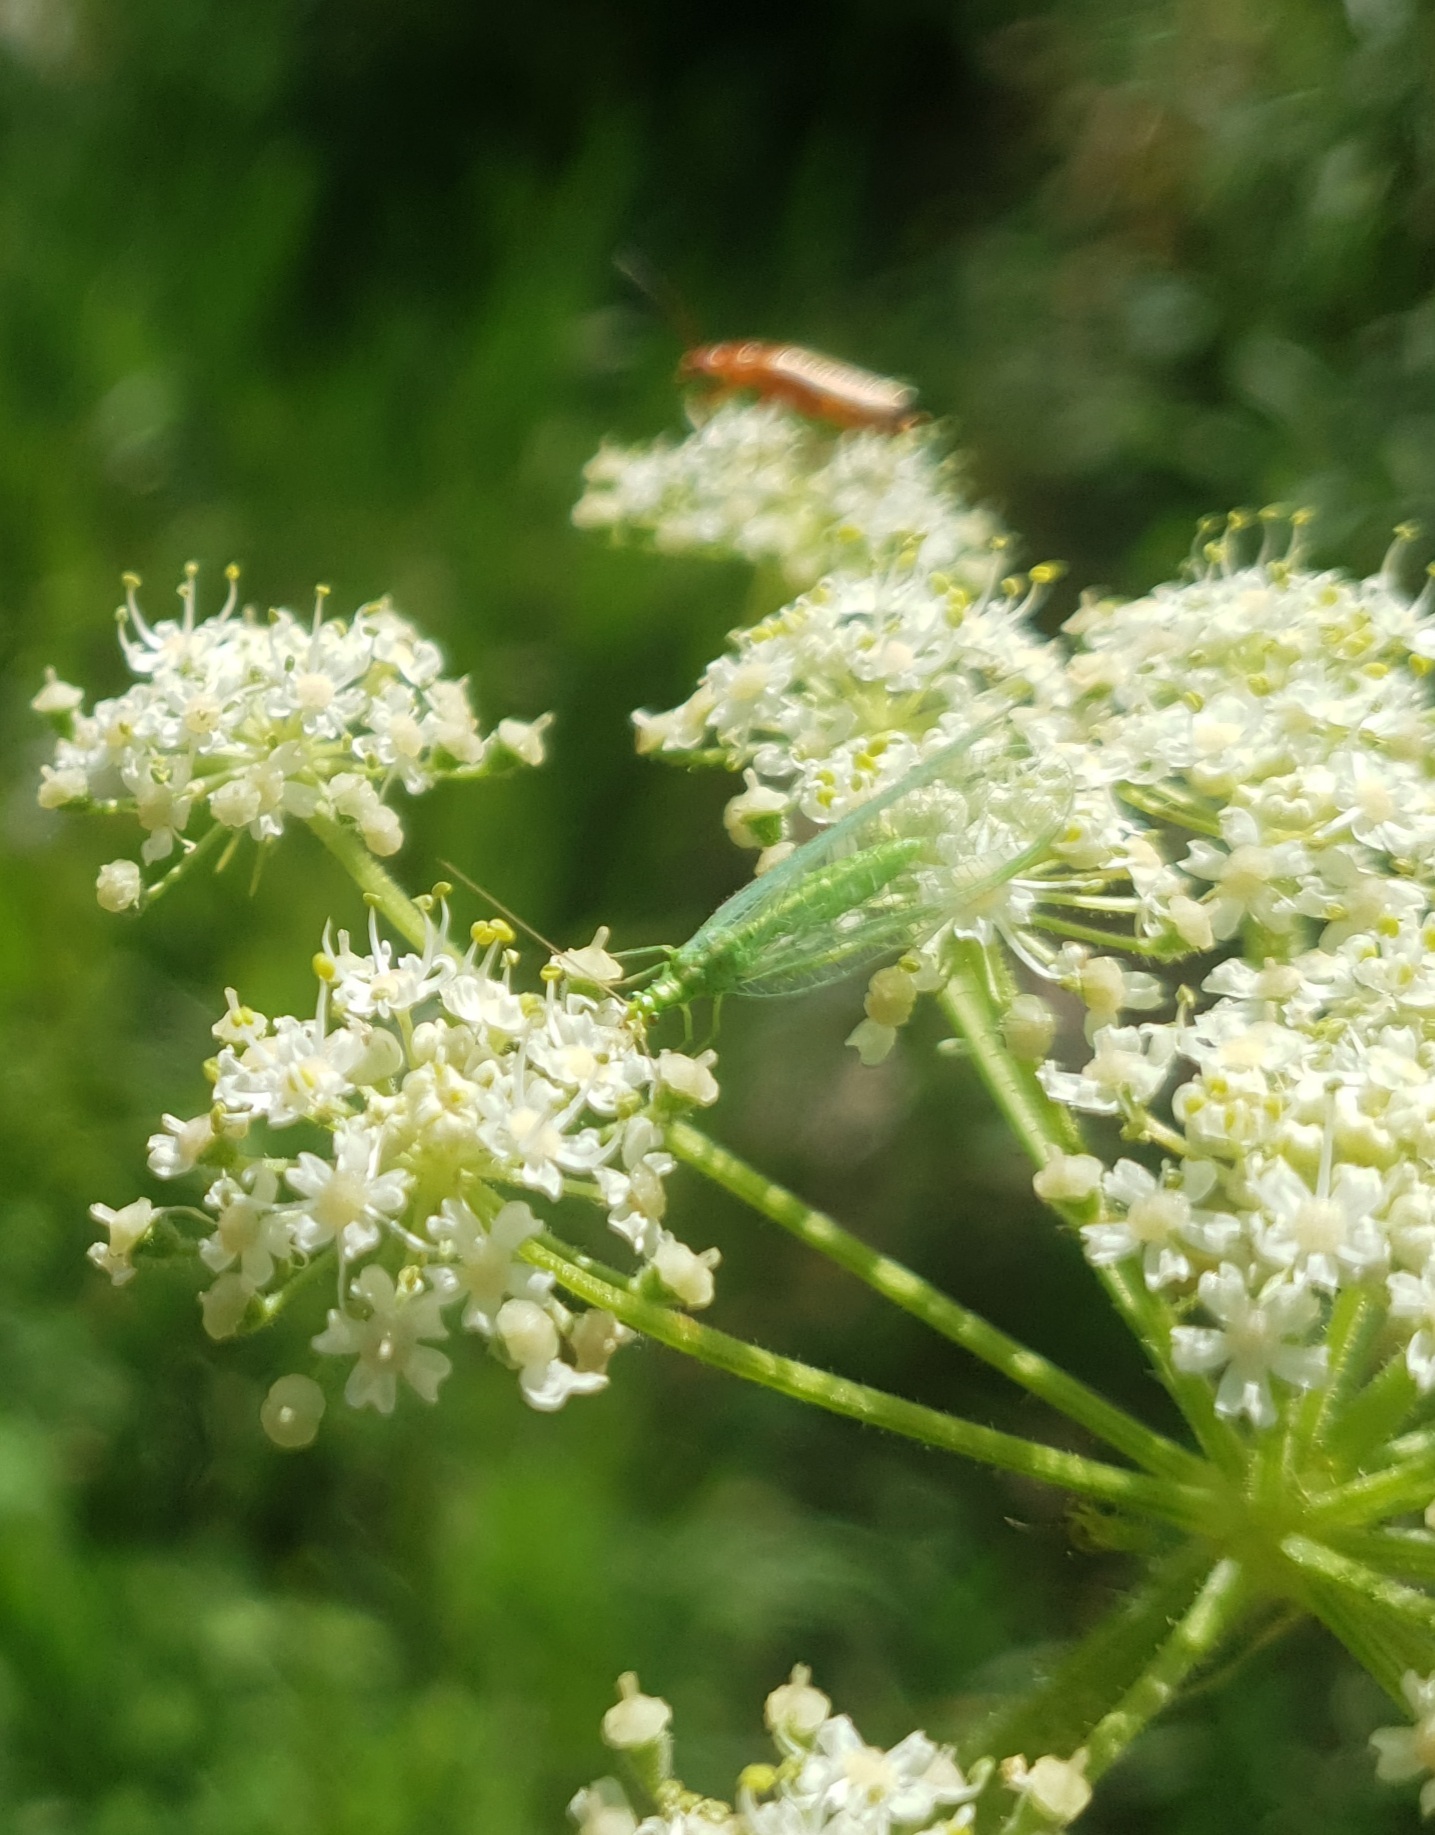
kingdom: Animalia
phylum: Arthropoda
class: Insecta
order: Neuroptera
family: Chrysopidae
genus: Chrysoperla
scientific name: Chrysoperla
